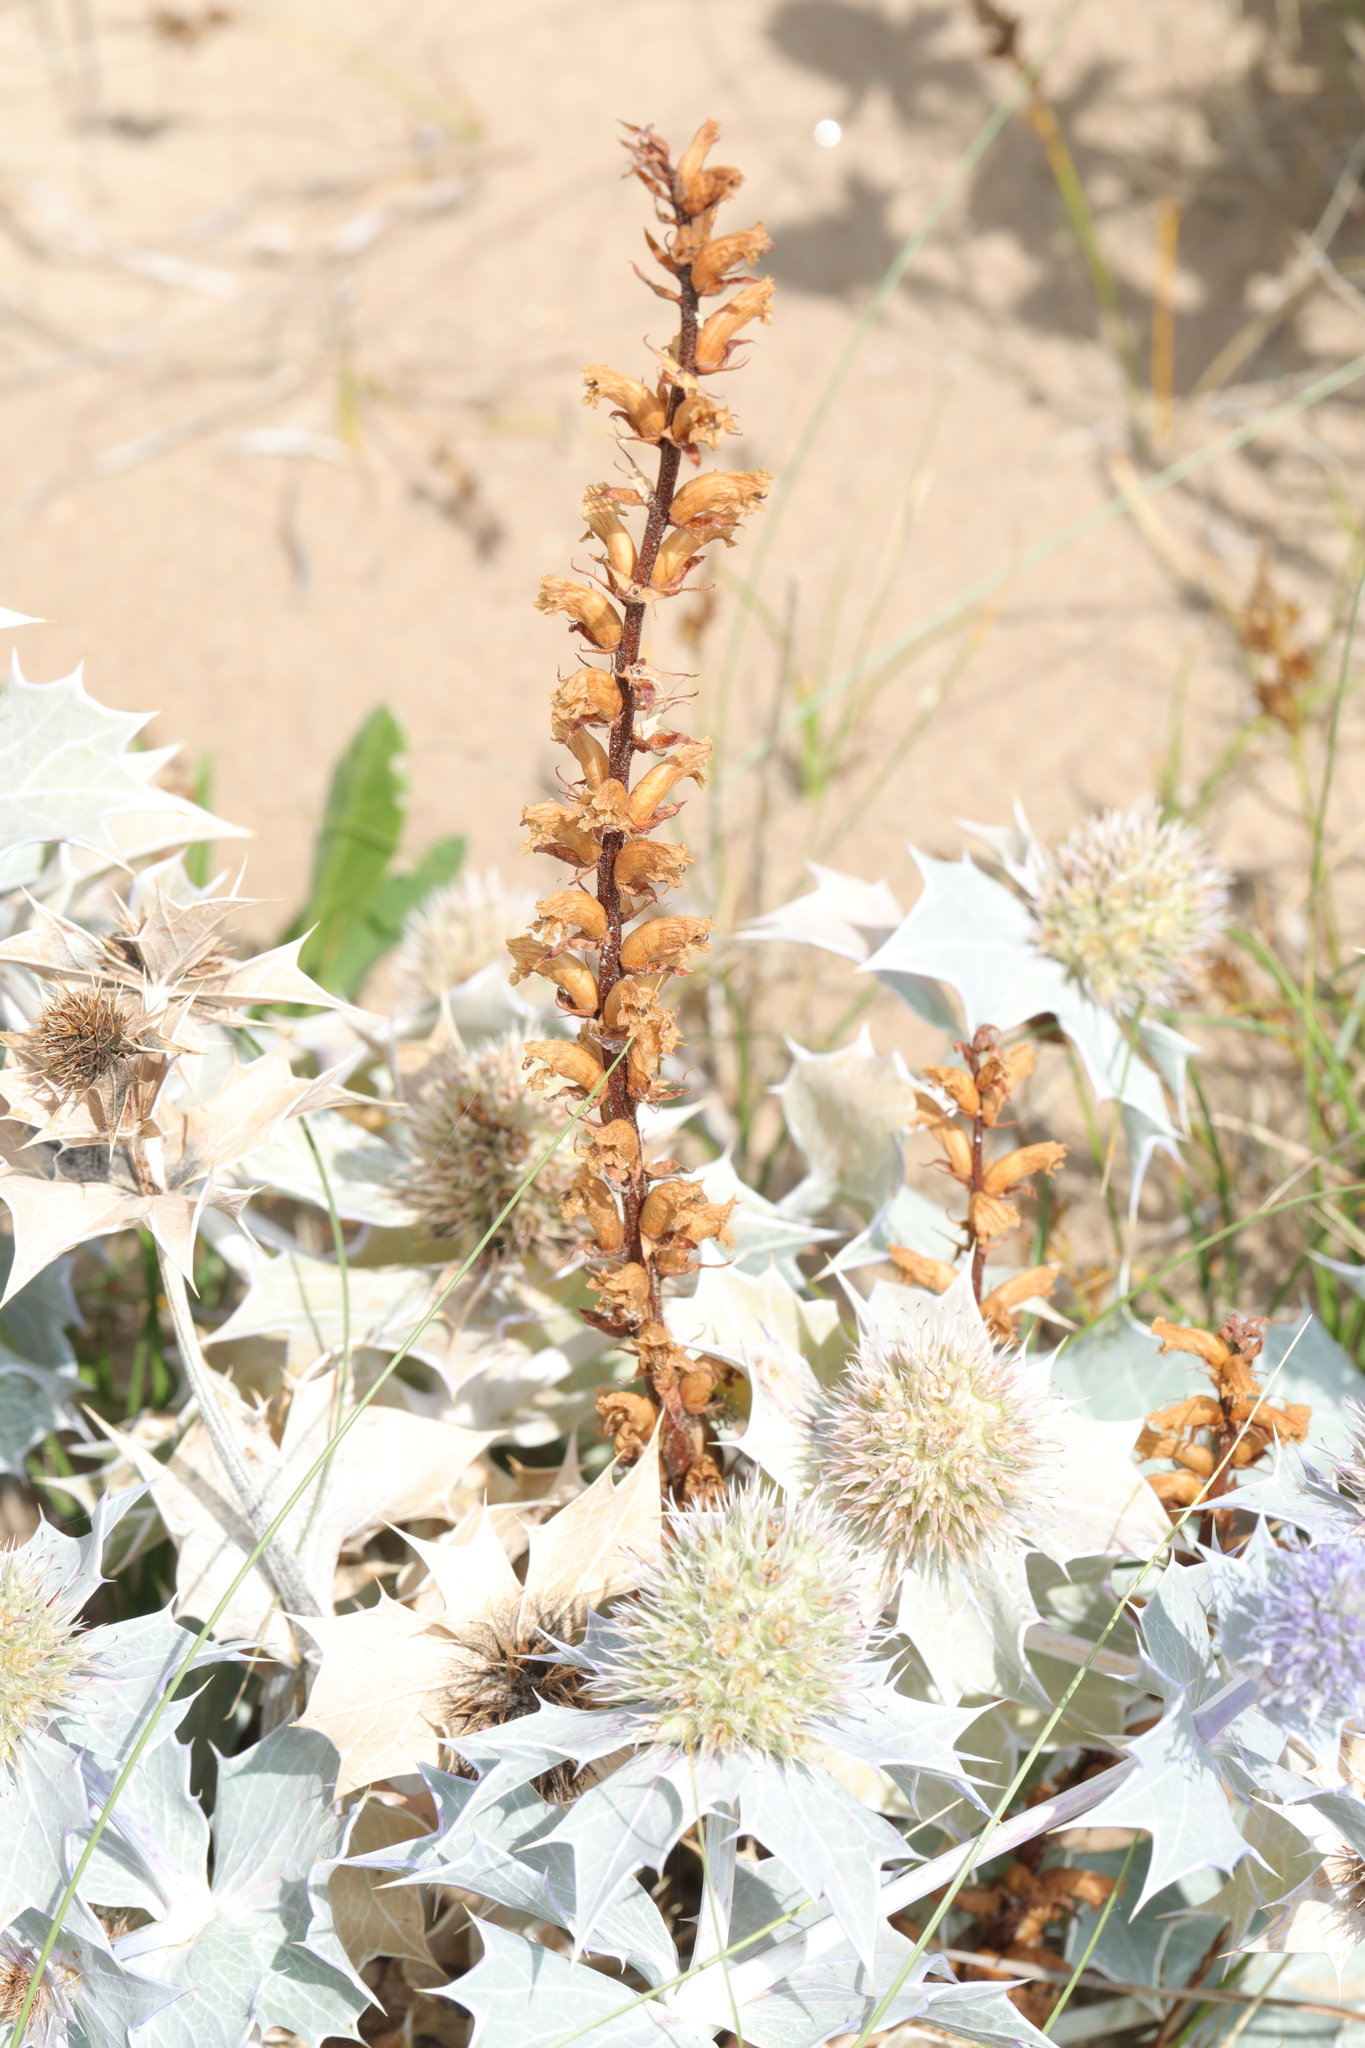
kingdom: Plantae
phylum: Tracheophyta
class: Magnoliopsida
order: Lamiales
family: Orobanchaceae
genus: Orobanche
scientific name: Orobanche minor
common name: Common broomrape
